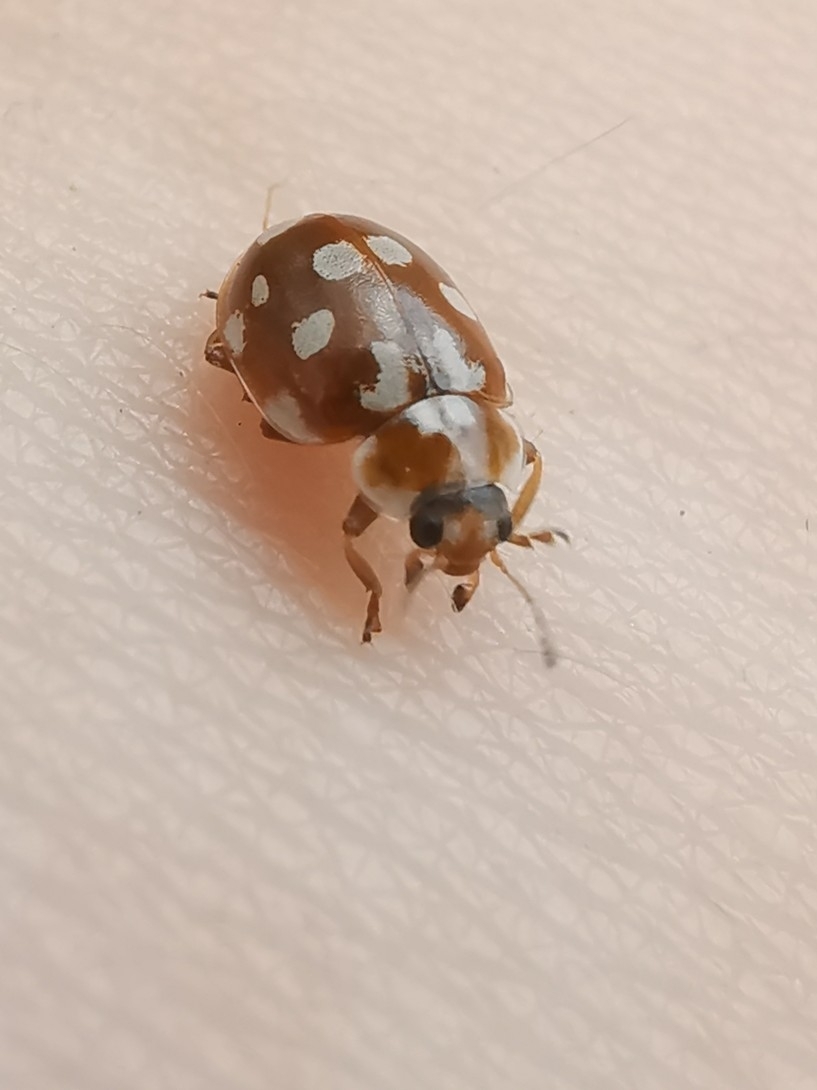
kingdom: Animalia
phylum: Arthropoda
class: Insecta
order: Coleoptera
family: Coccinellidae
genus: Myrrha
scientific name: Myrrha octodecimguttata
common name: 18-spot ladybird
